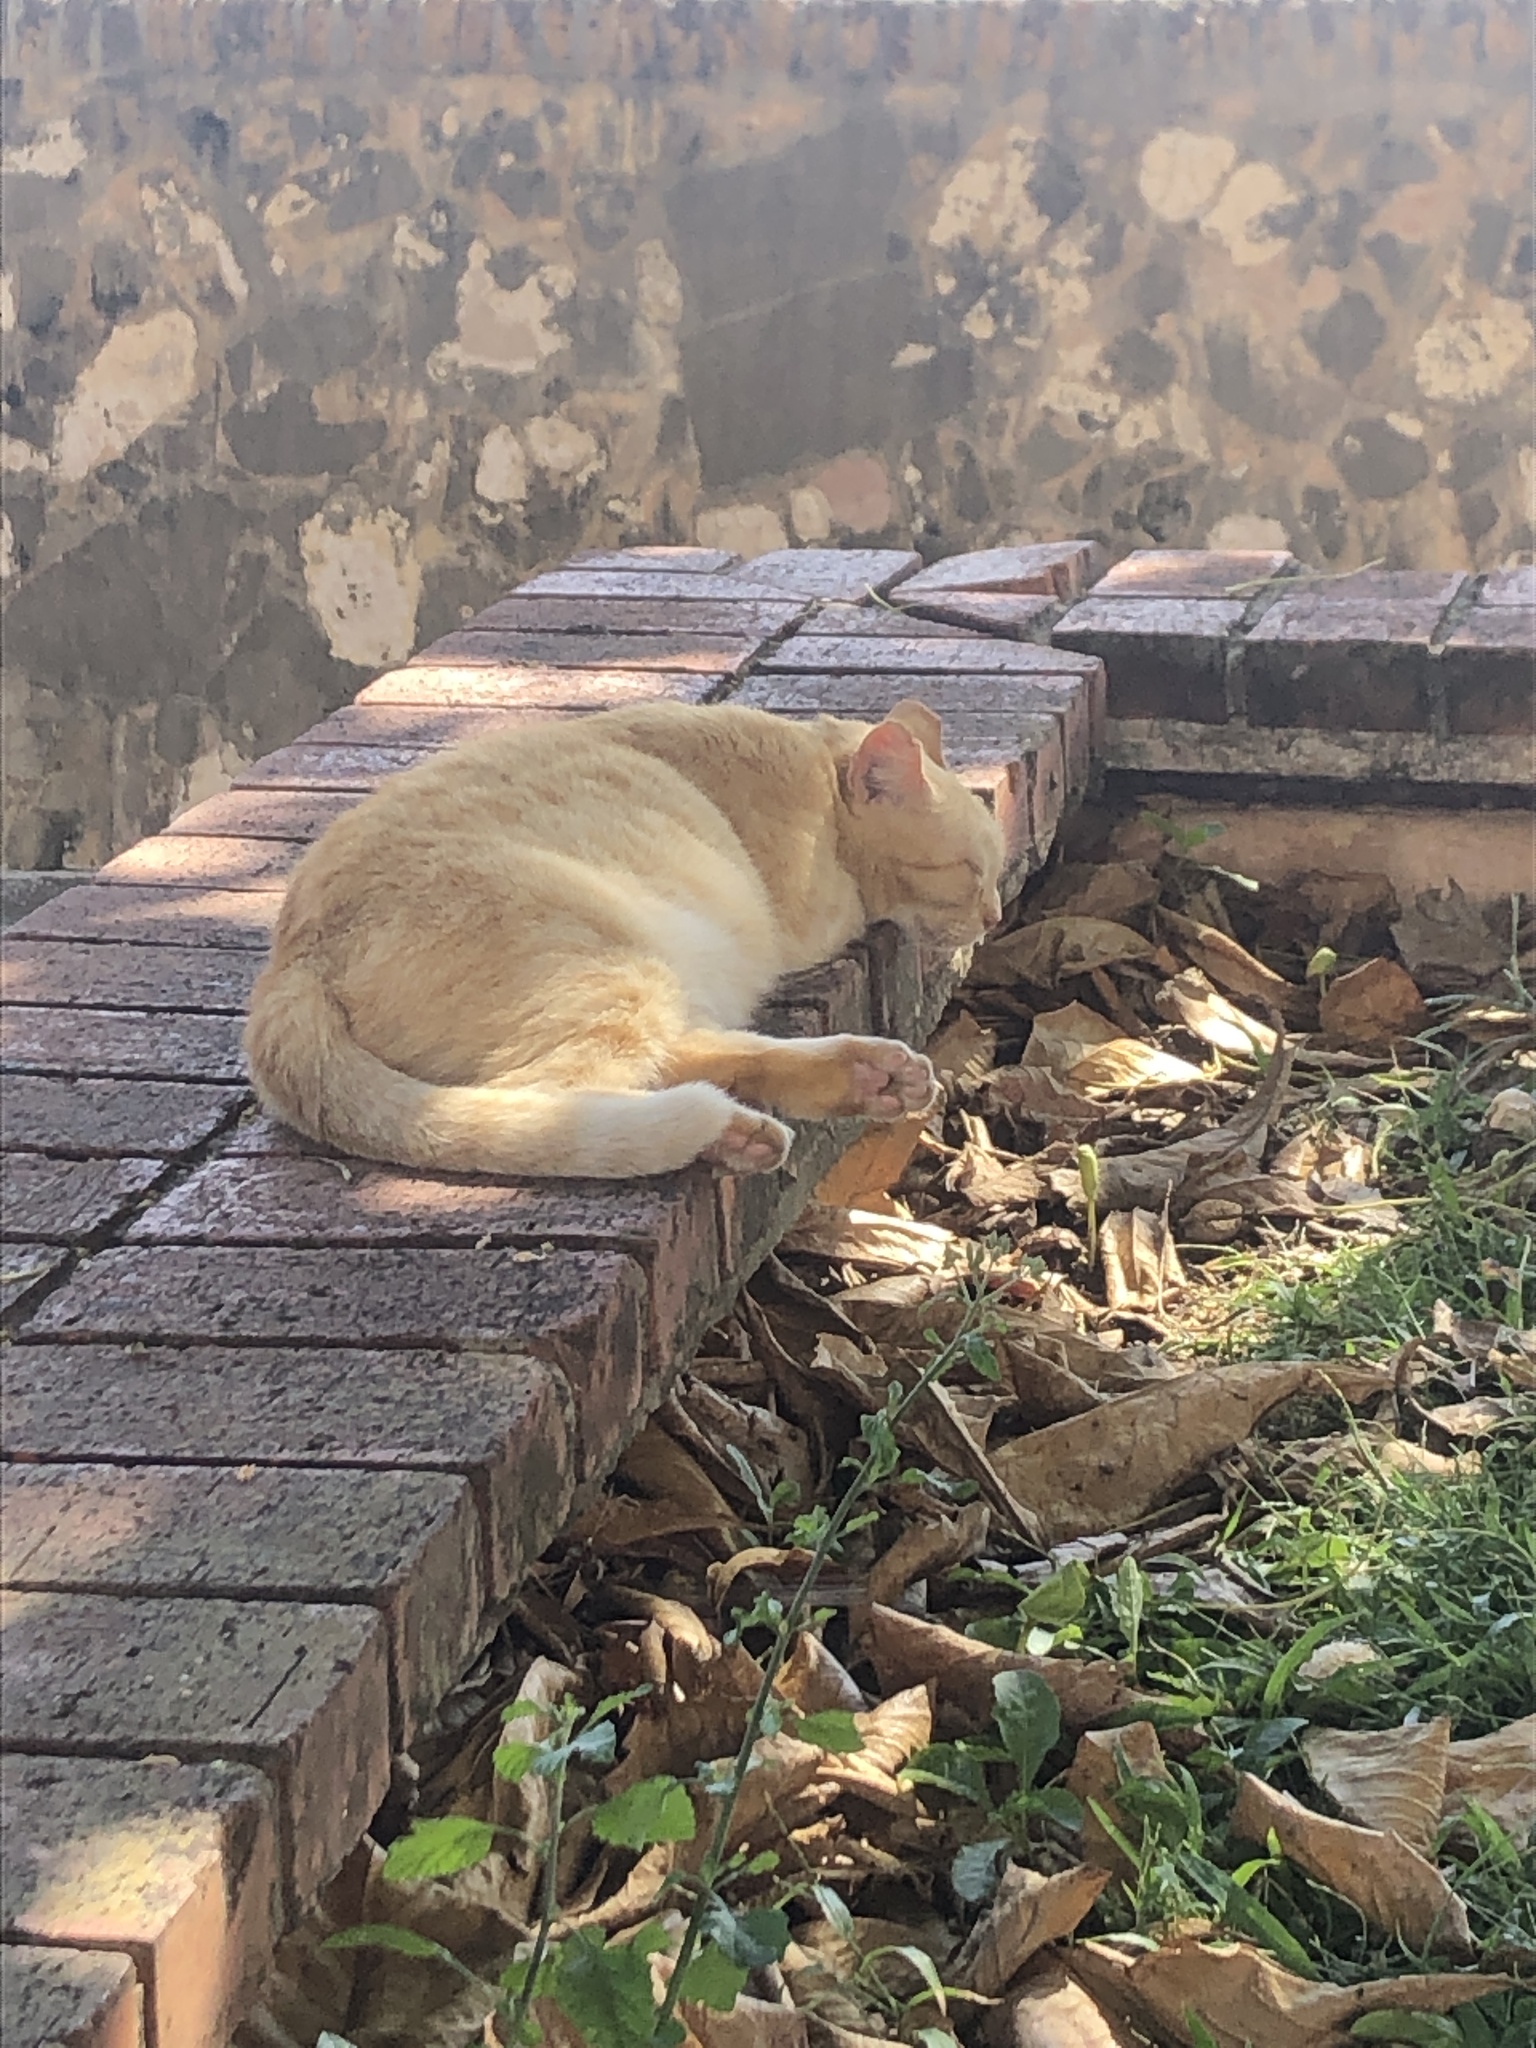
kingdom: Animalia
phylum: Chordata
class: Mammalia
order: Carnivora
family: Felidae
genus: Felis
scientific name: Felis catus
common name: Domestic cat
